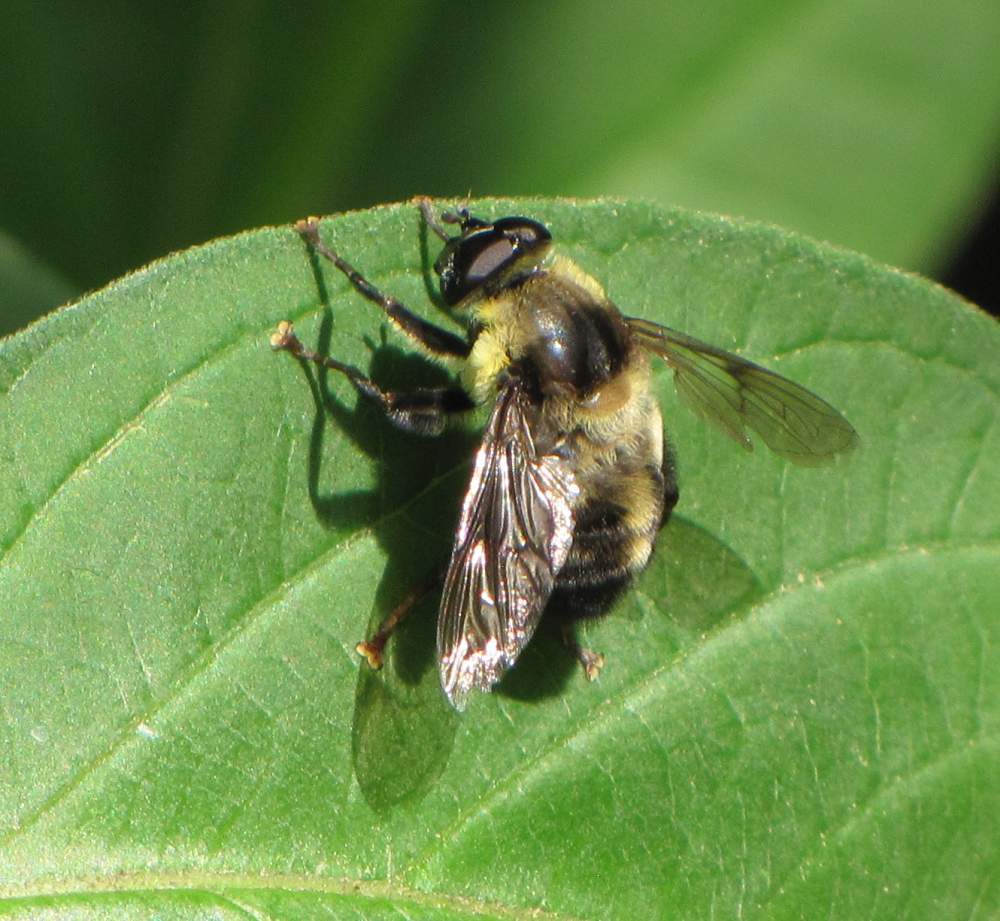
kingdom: Animalia
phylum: Arthropoda
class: Insecta
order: Diptera
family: Syrphidae
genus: Imatisma
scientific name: Imatisma posticata
